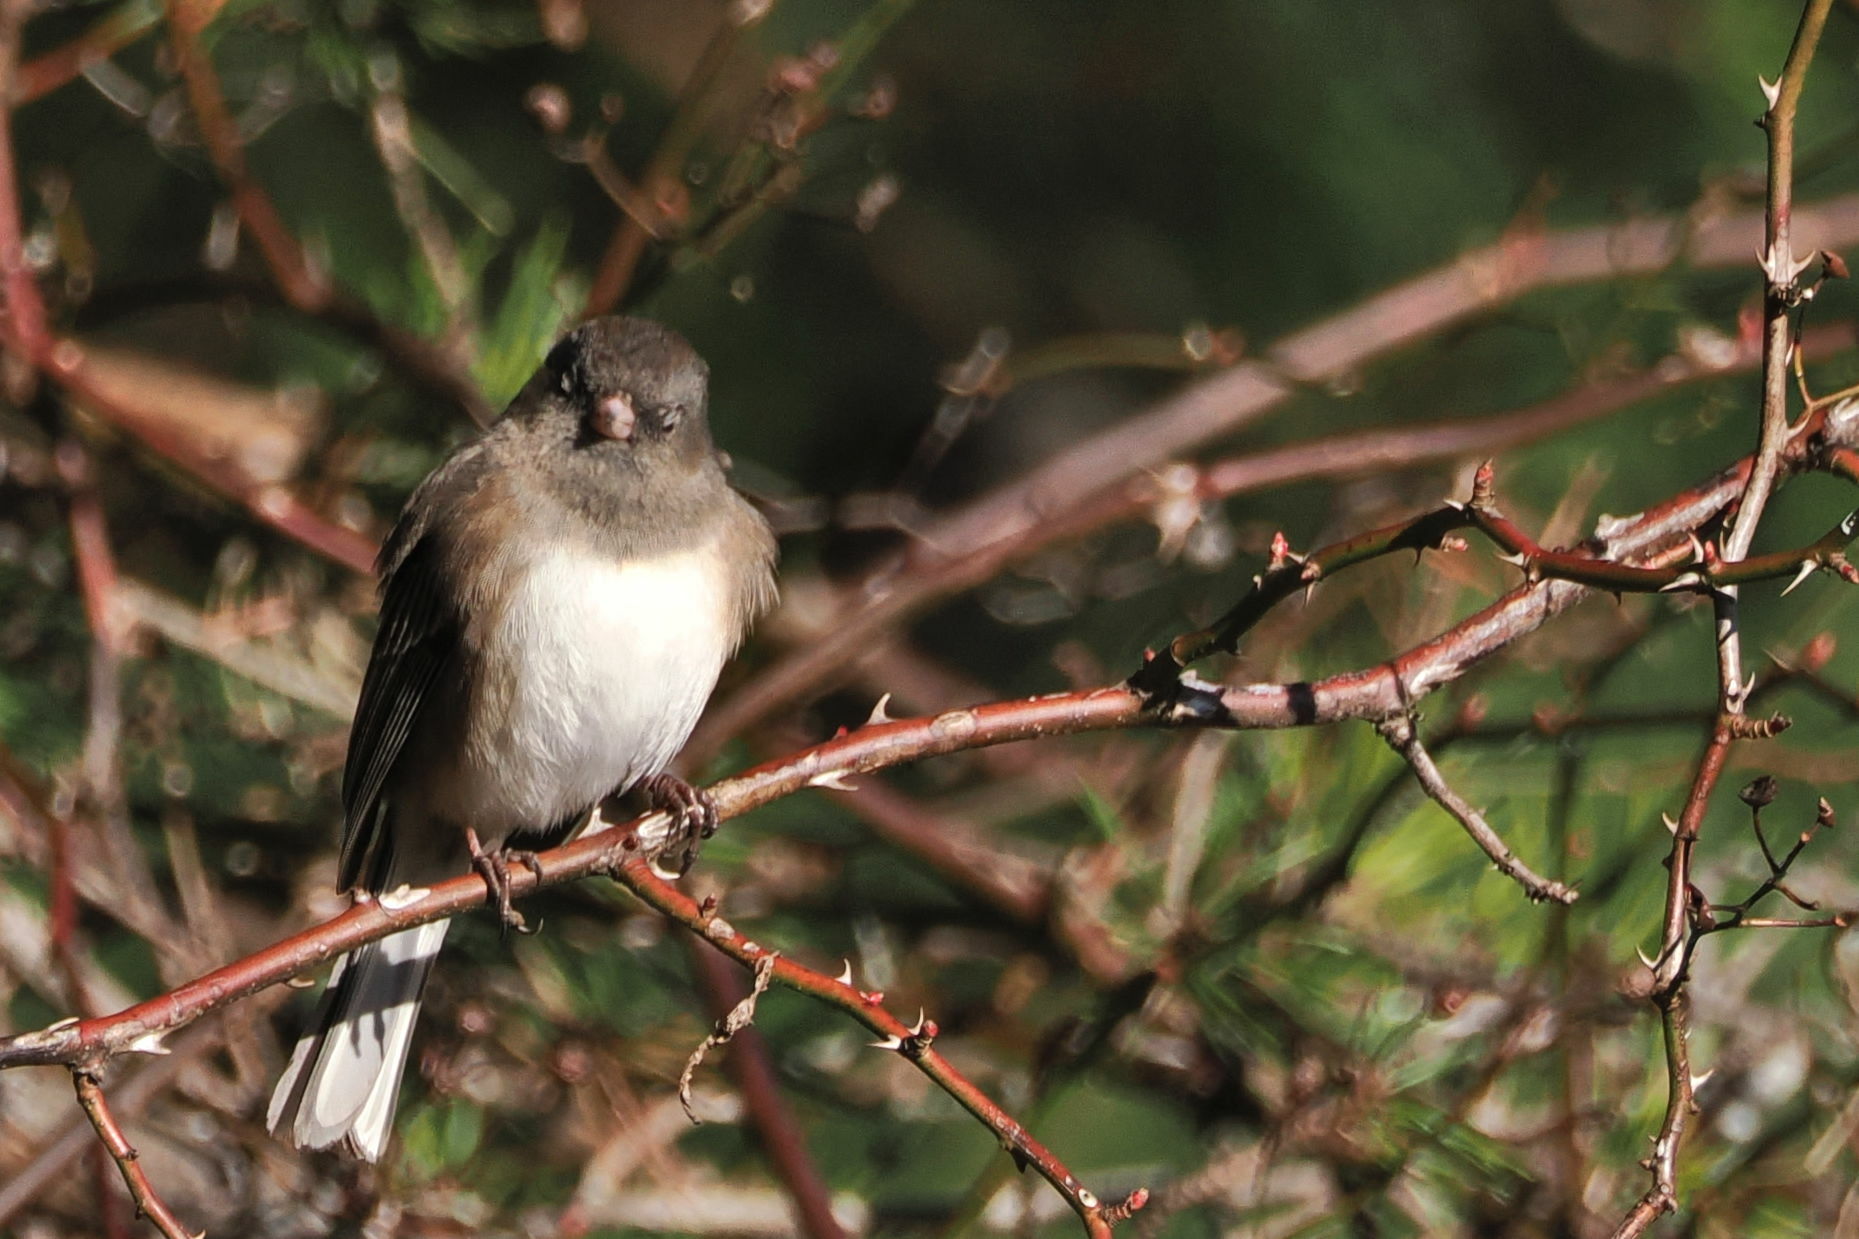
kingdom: Animalia
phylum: Chordata
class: Aves
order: Passeriformes
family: Passerellidae
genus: Junco
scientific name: Junco hyemalis
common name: Dark-eyed junco
